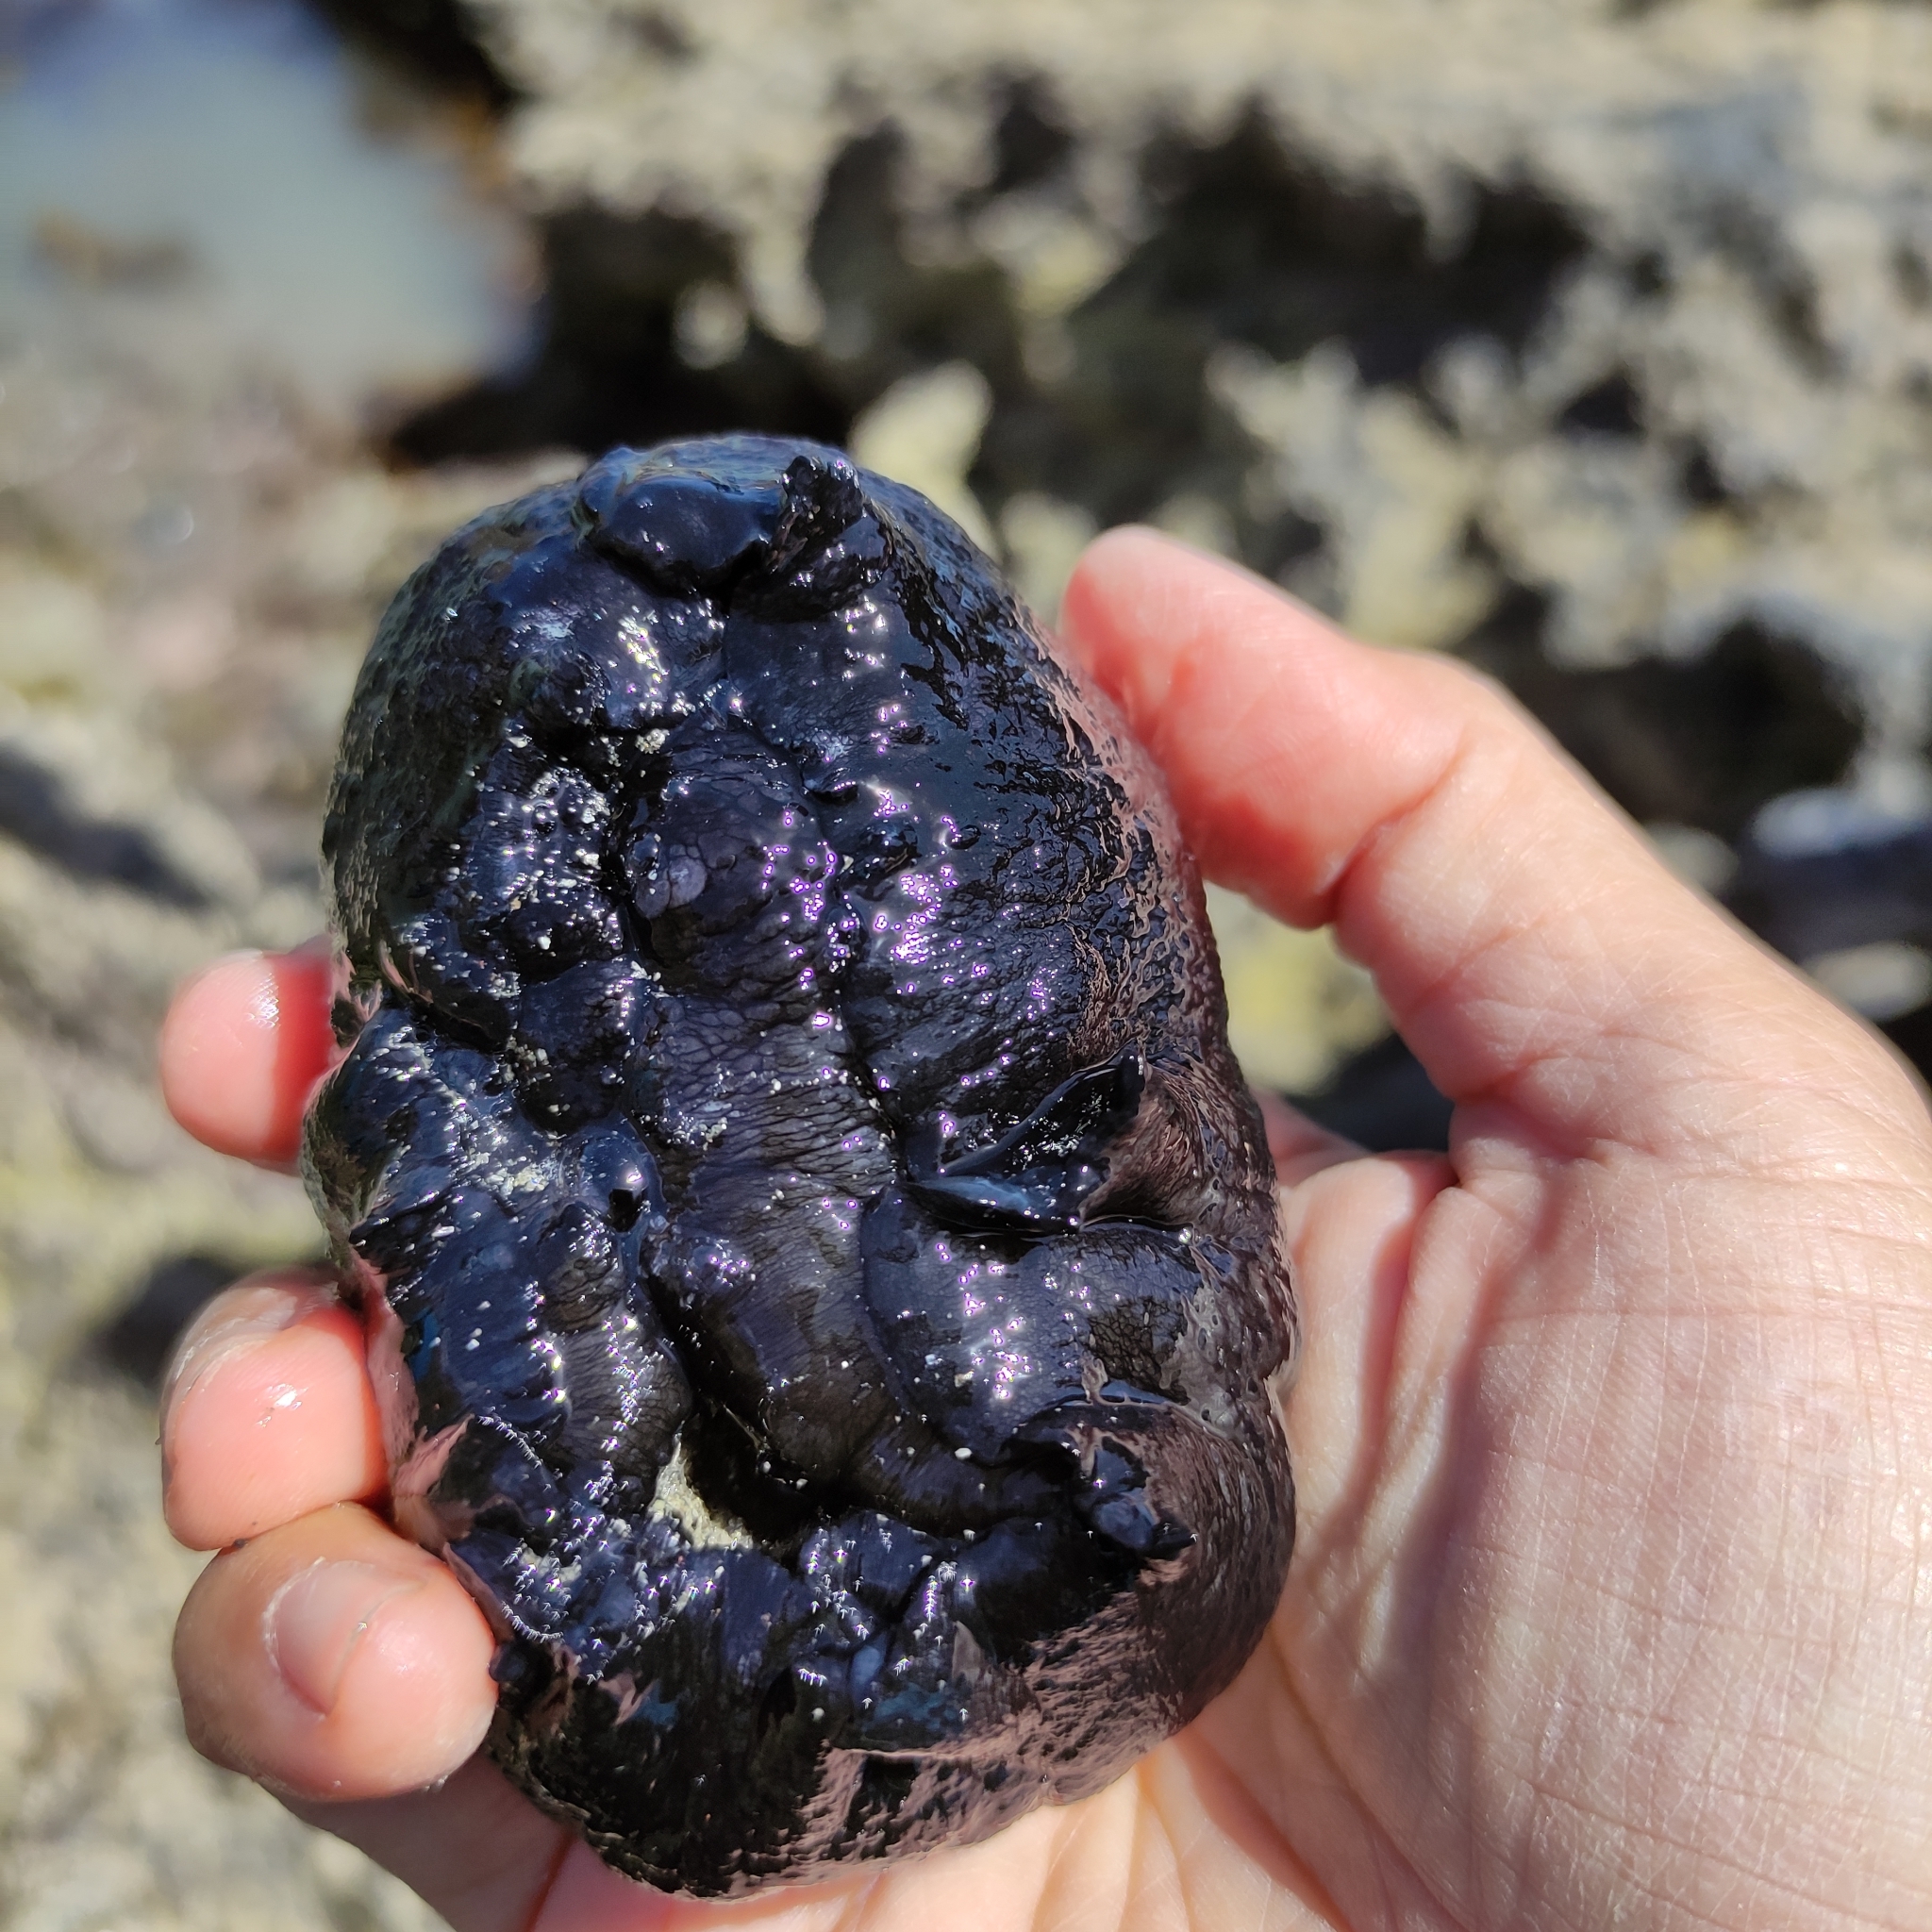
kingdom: Animalia
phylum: Mollusca
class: Gastropoda
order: Lepetellida
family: Fissurellidae
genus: Scutus
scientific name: Scutus breviculus
